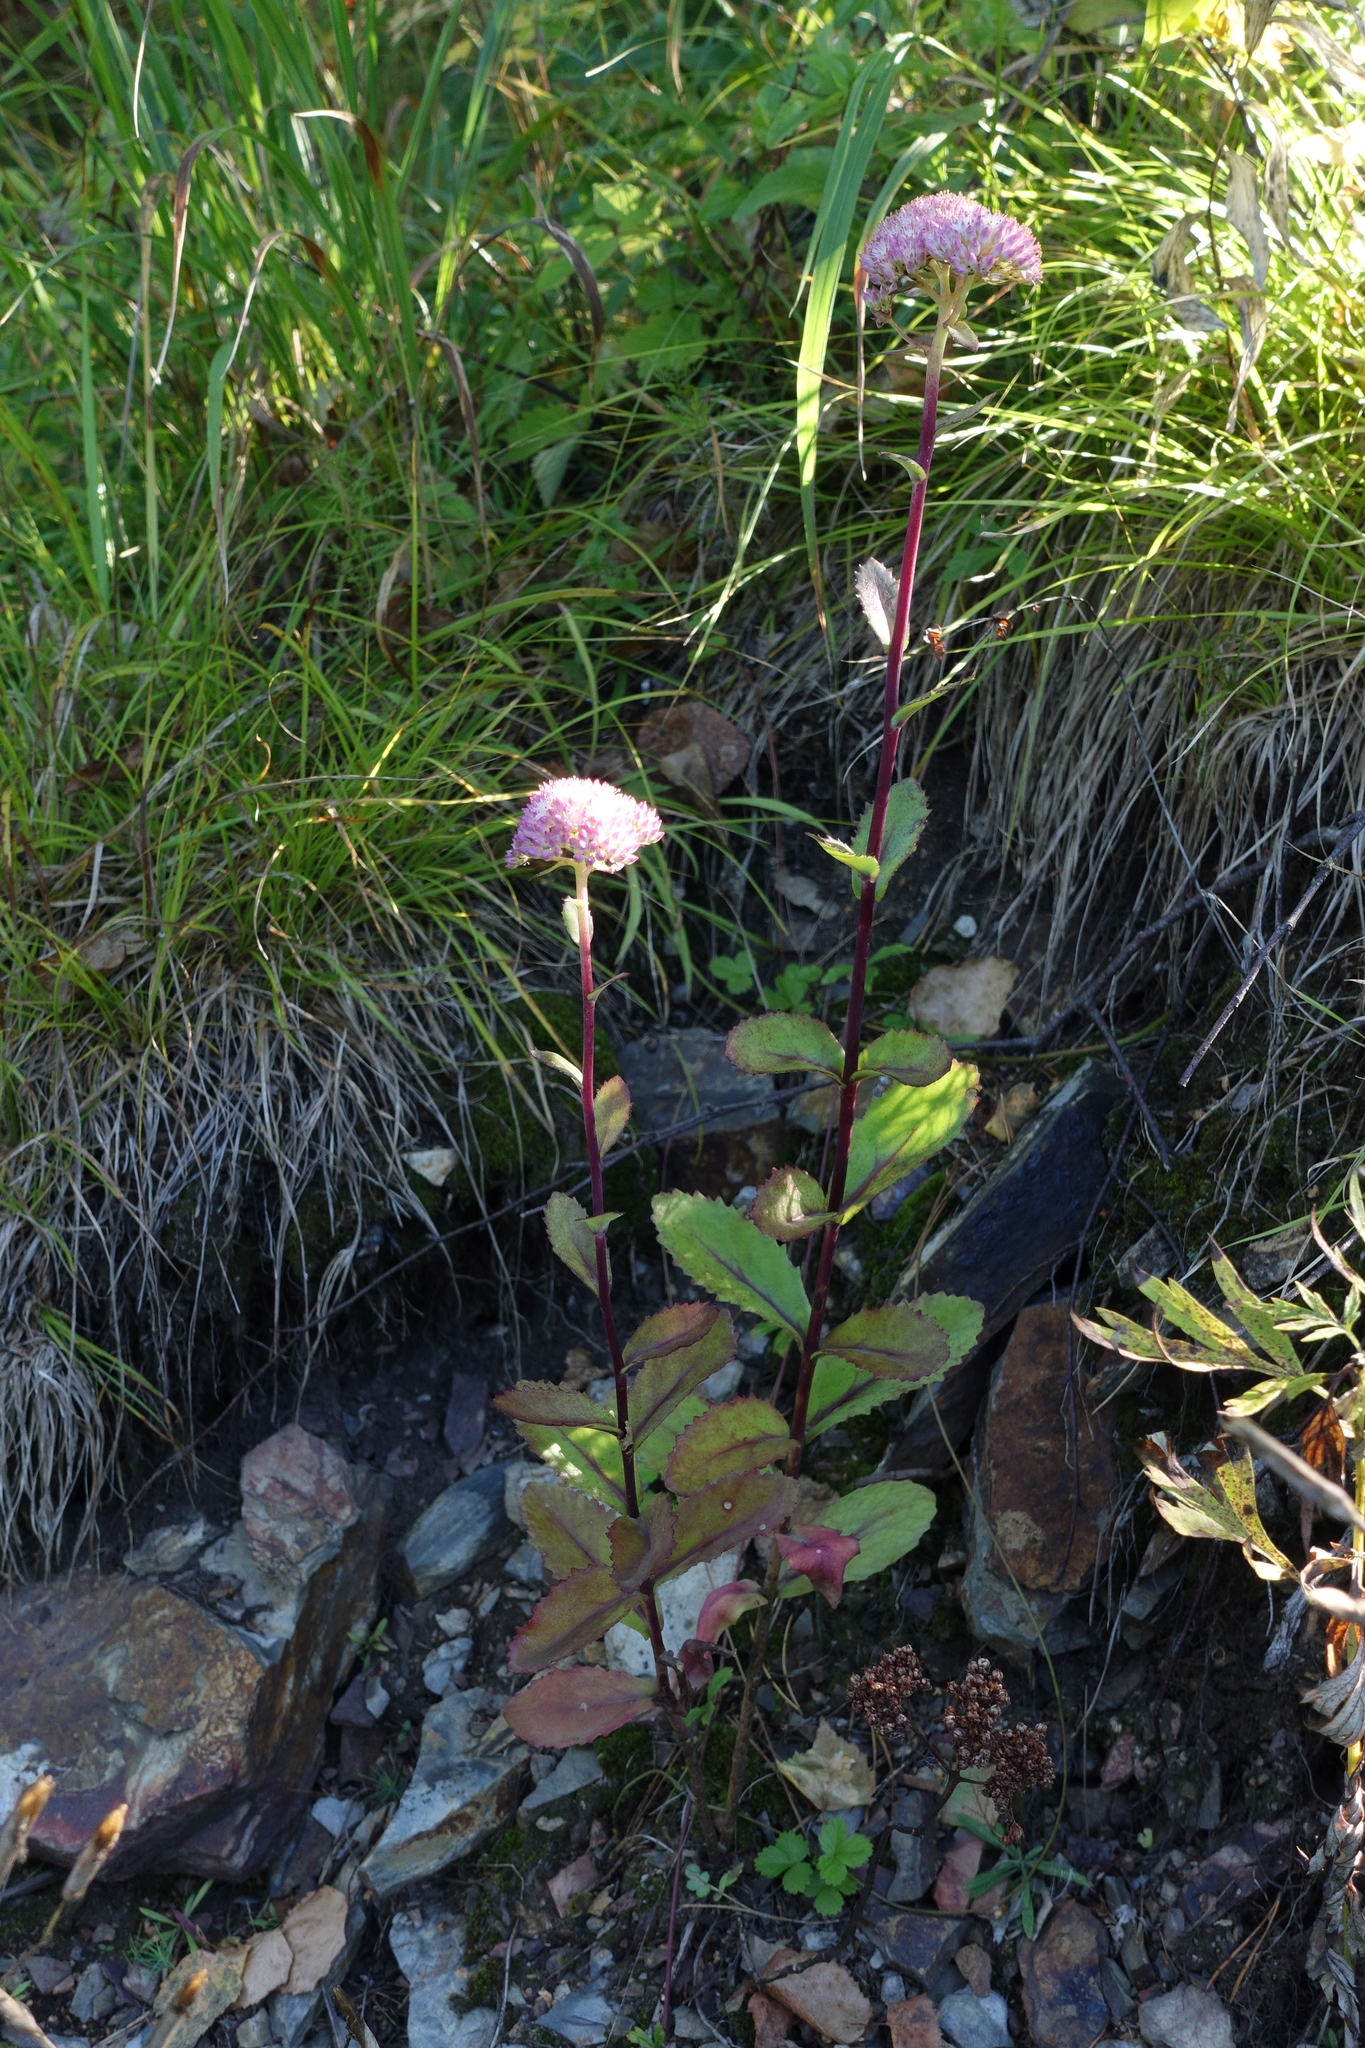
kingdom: Plantae
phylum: Tracheophyta
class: Magnoliopsida
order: Saxifragales
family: Crassulaceae
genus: Hylotelephium
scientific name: Hylotelephium telephium
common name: Live-forever
